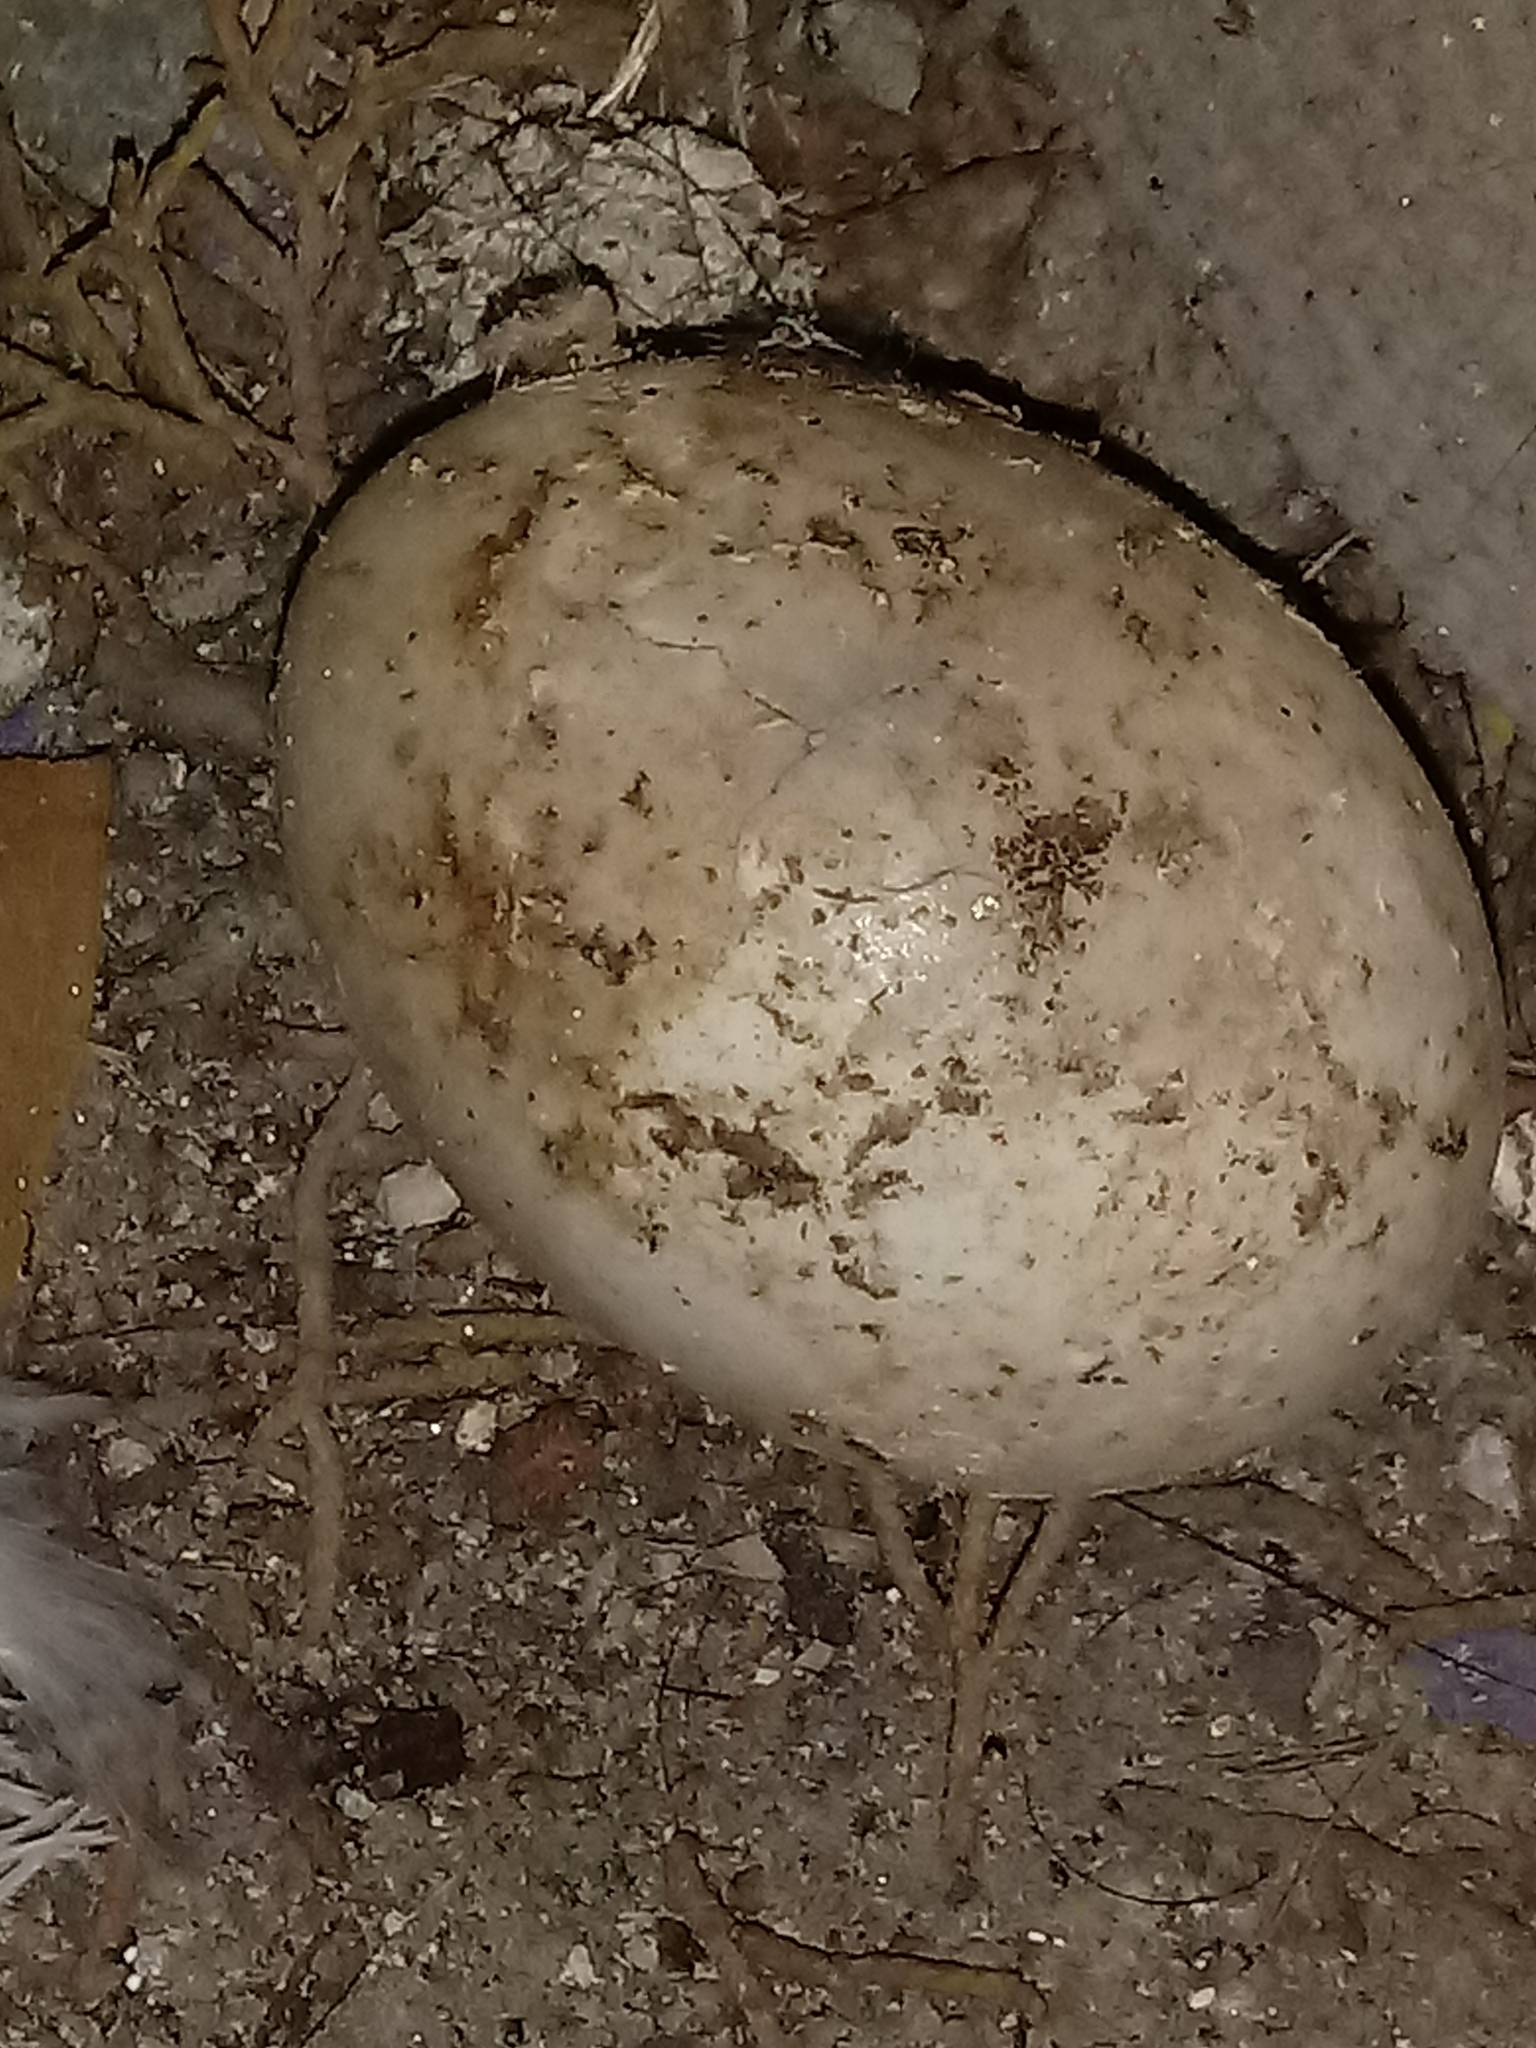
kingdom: Animalia
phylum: Chordata
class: Aves
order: Columbiformes
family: Columbidae
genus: Columba
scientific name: Columba livia
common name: Rock pigeon
